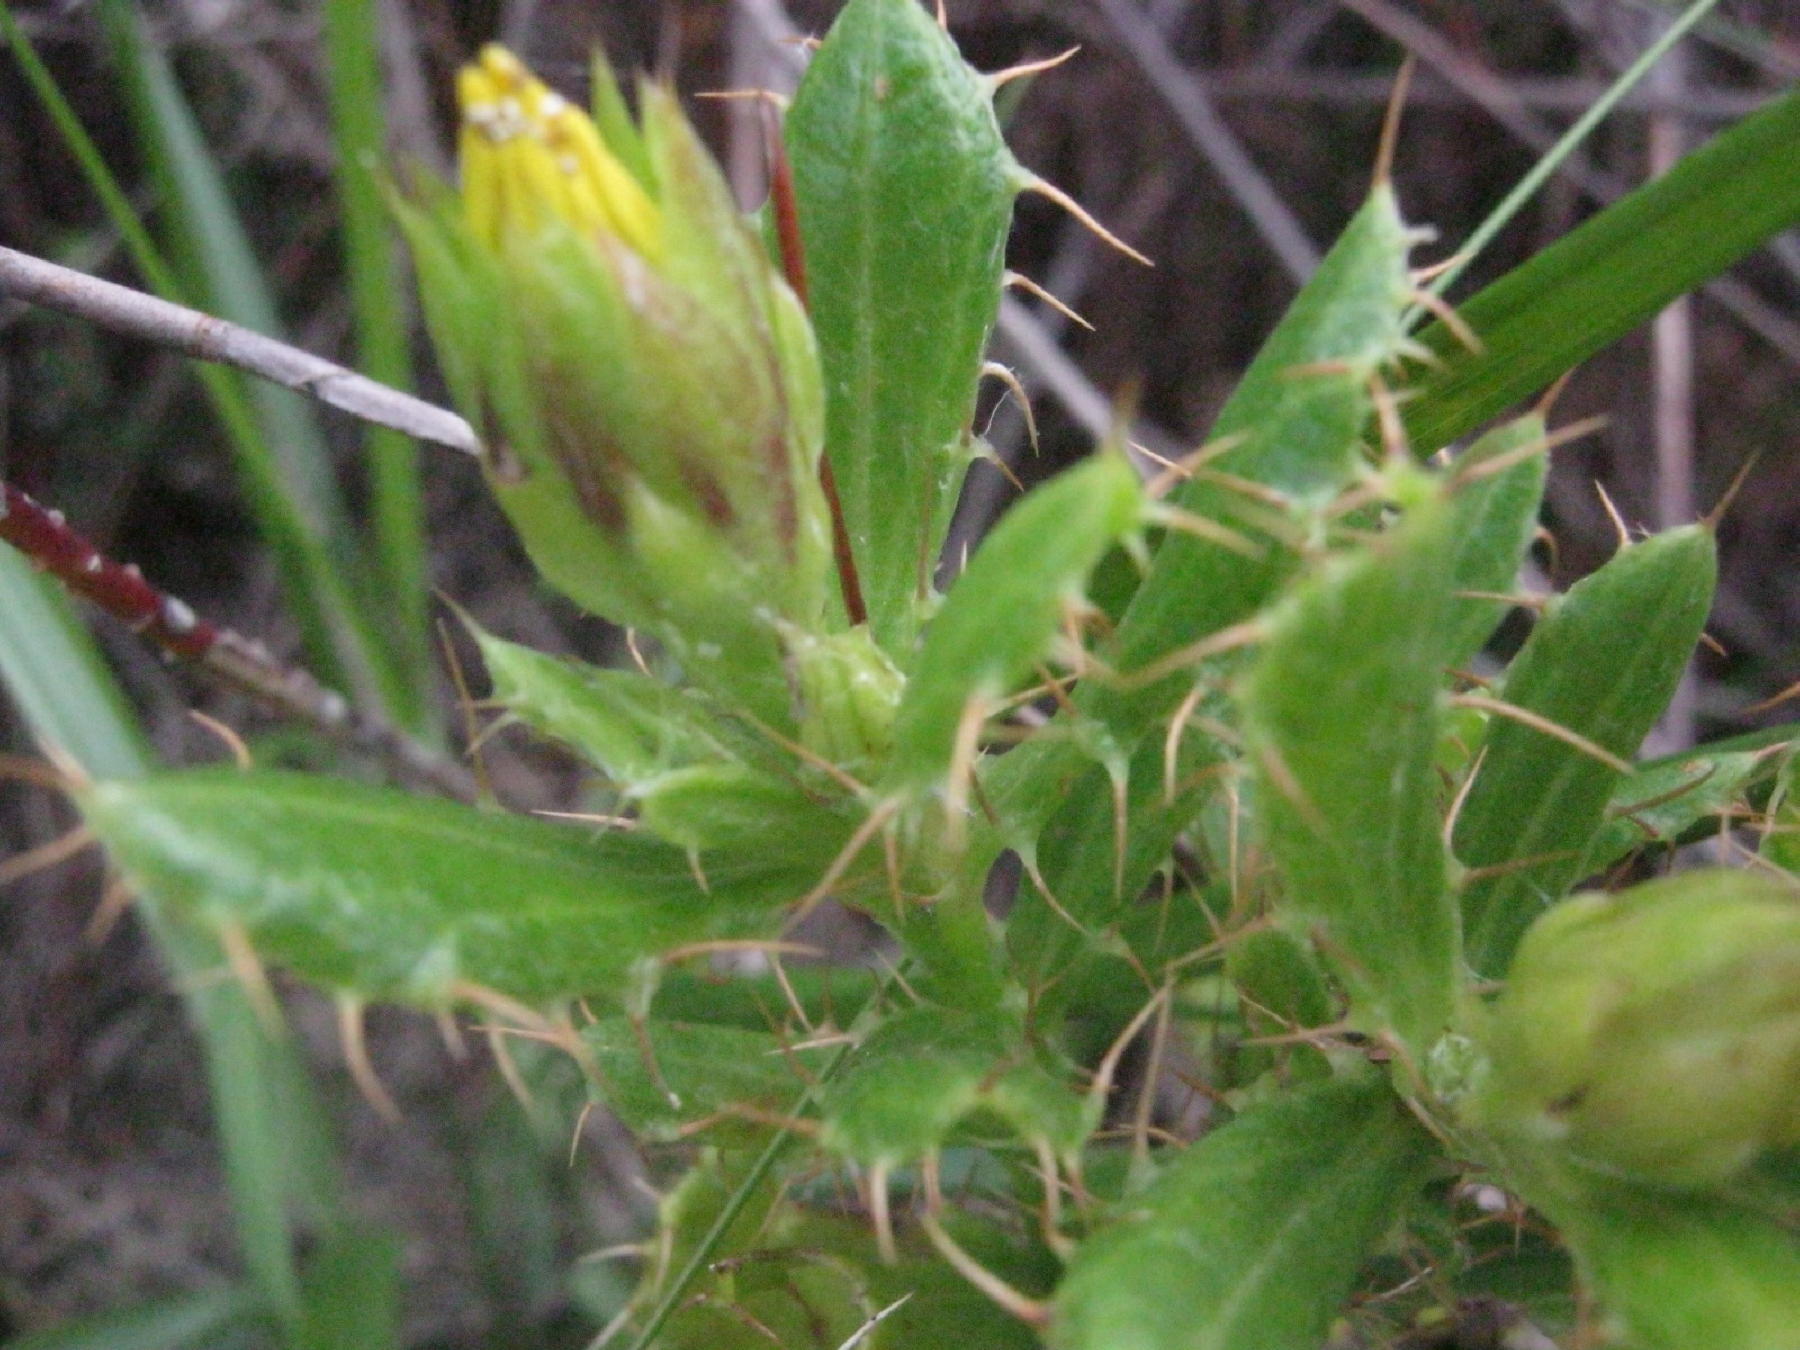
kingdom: Plantae
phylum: Tracheophyta
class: Magnoliopsida
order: Asterales
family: Asteraceae
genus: Cullumia
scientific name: Cullumia aculeata
